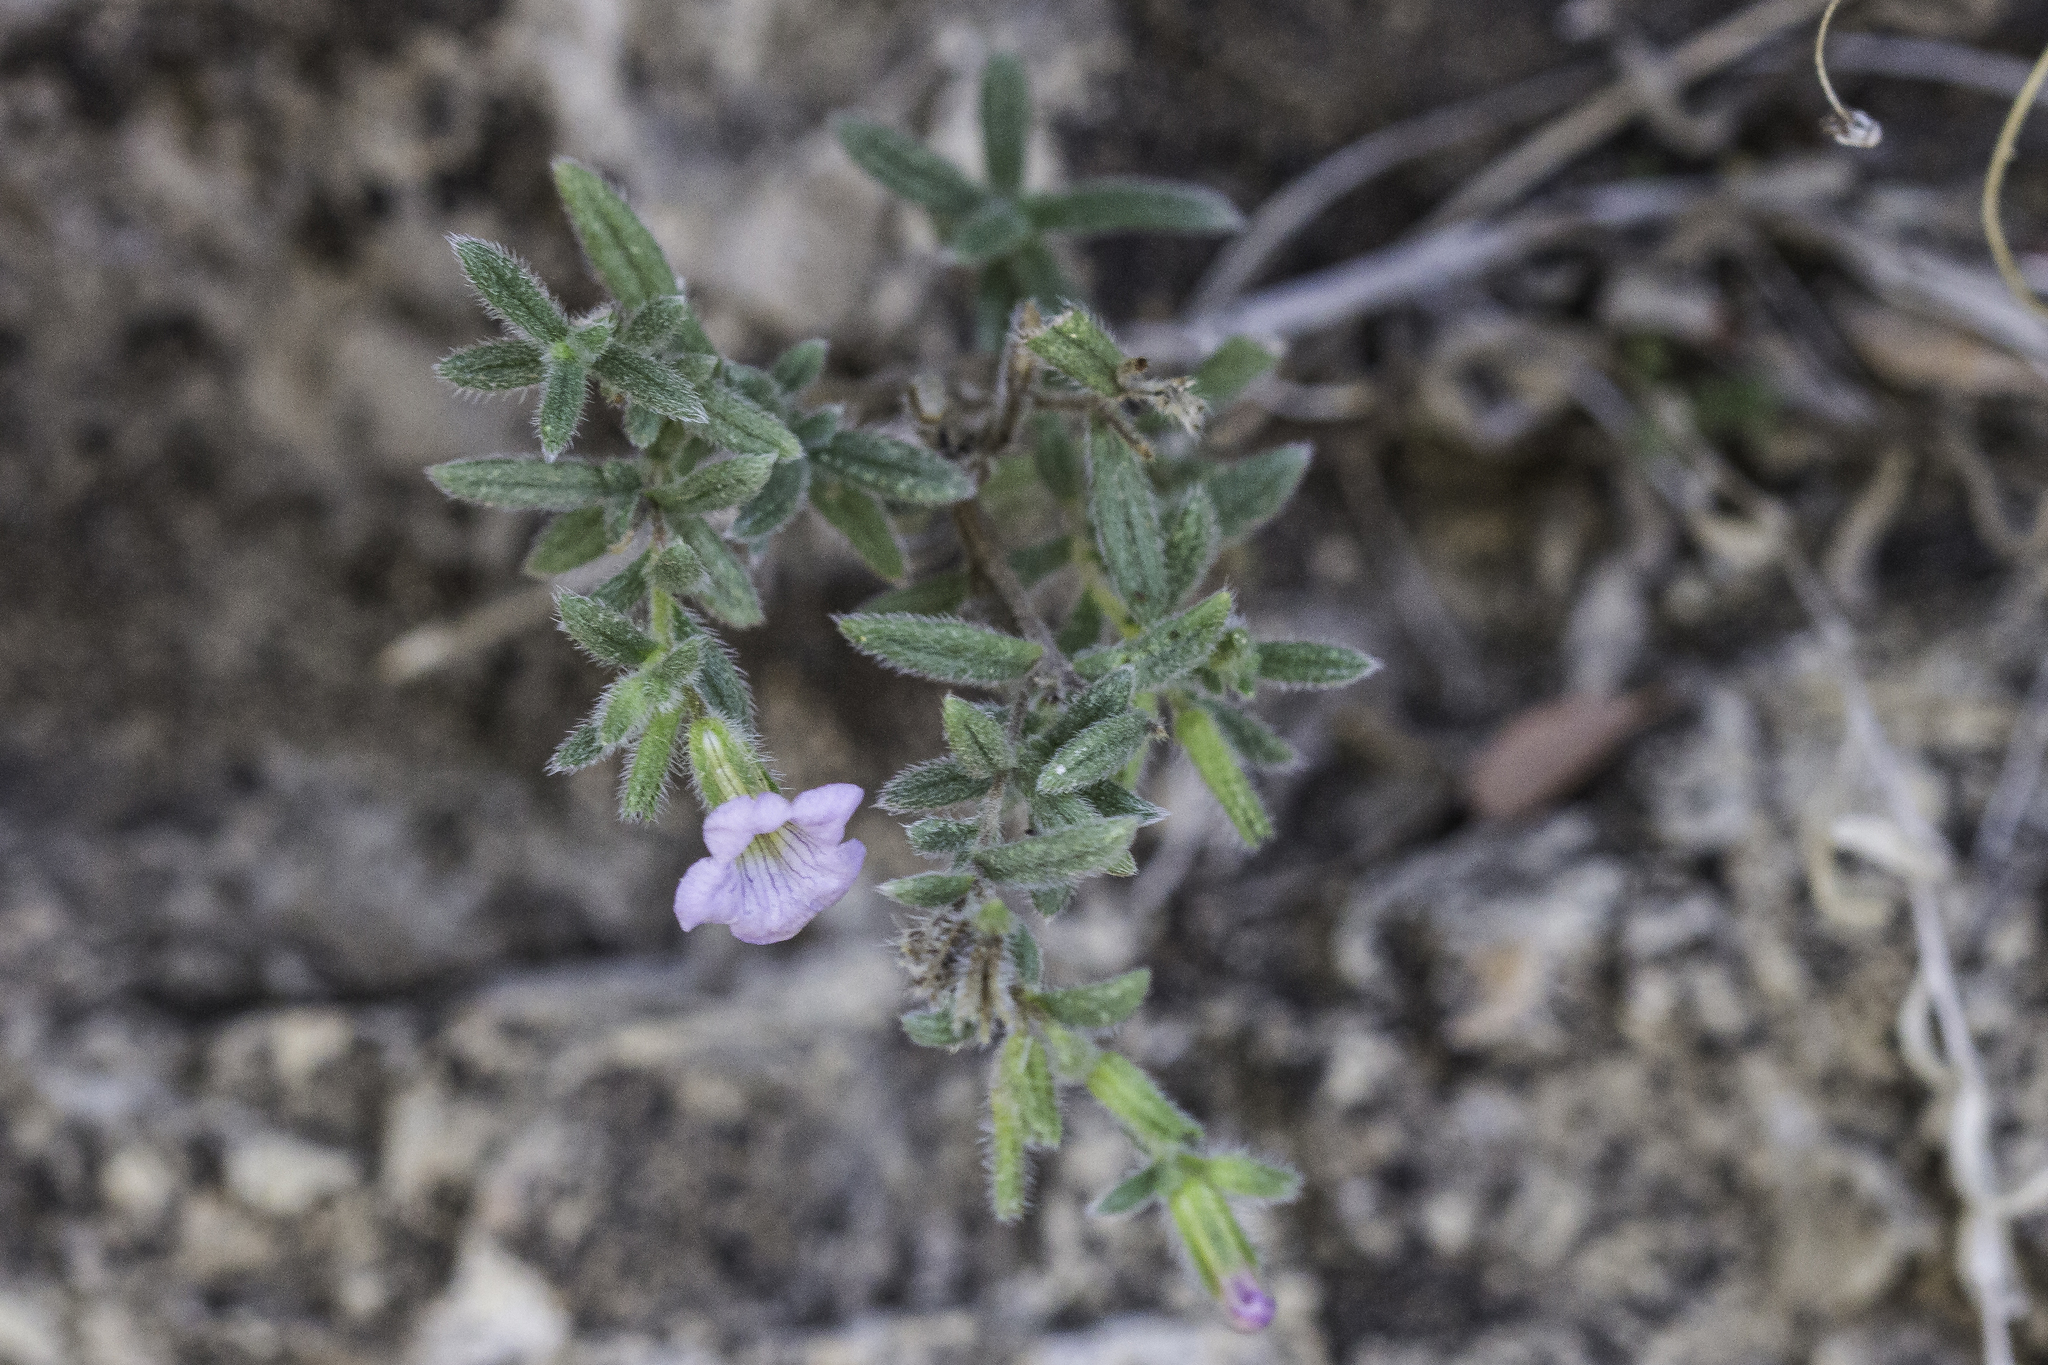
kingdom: Plantae
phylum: Tracheophyta
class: Magnoliopsida
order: Boraginales
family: Ehretiaceae
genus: Tiquilia
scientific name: Tiquilia gossypina
